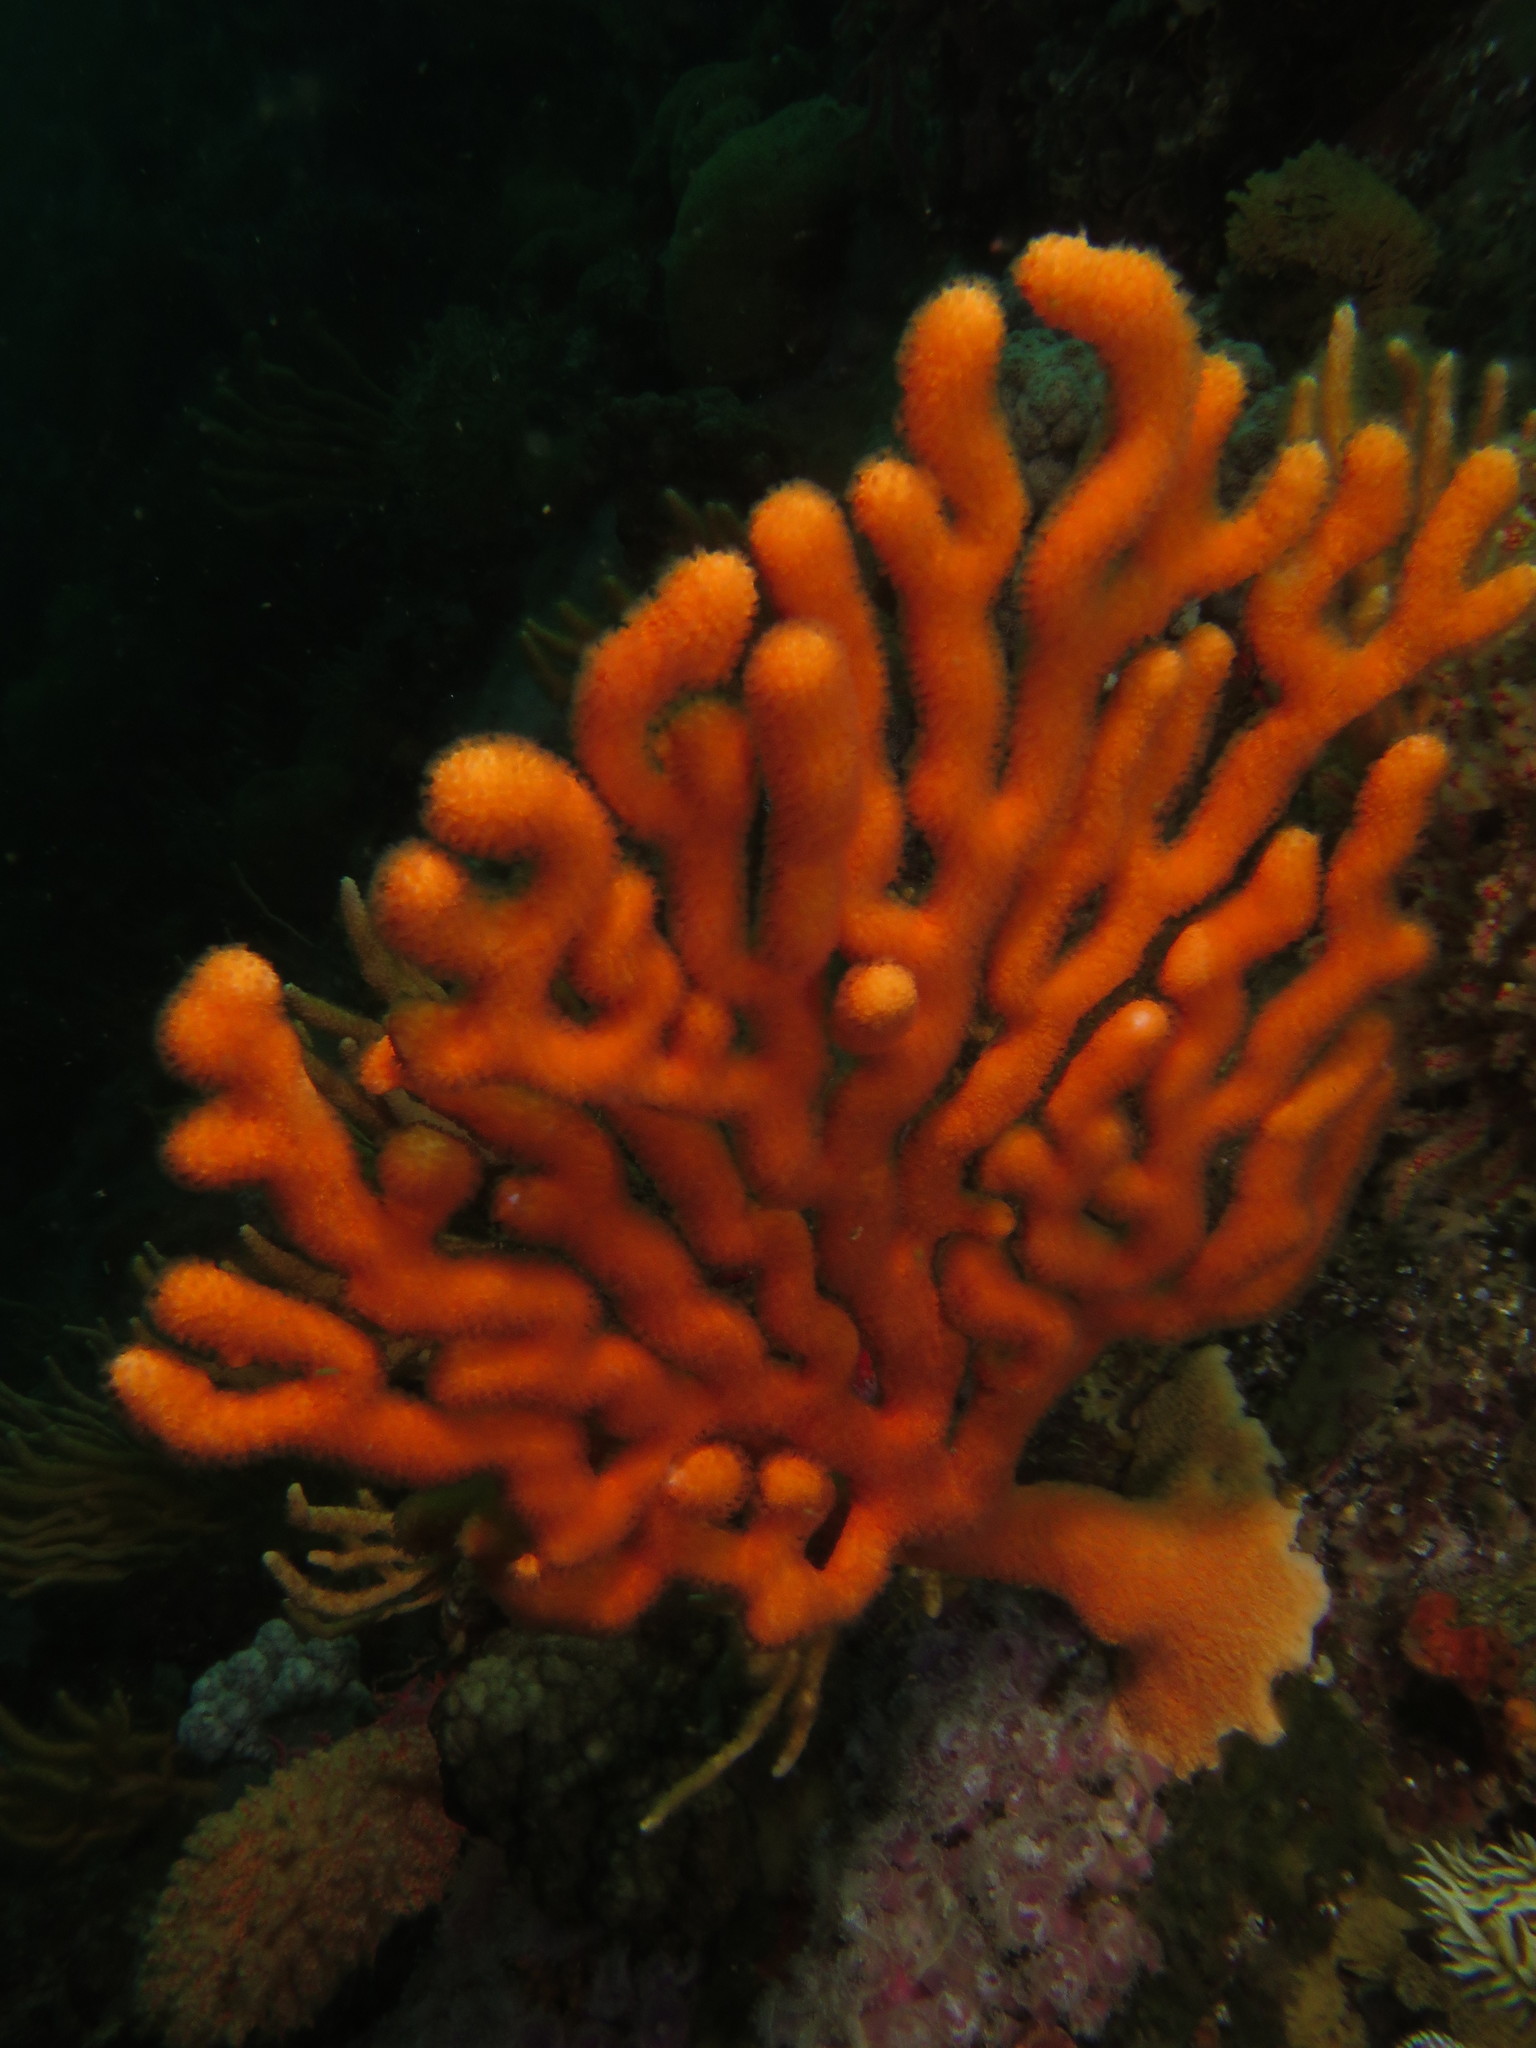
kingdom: Animalia
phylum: Cnidaria
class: Anthozoa
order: Malacalcyonacea
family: Eunicellidae
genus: Eunicella
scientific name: Eunicella tricoronata
